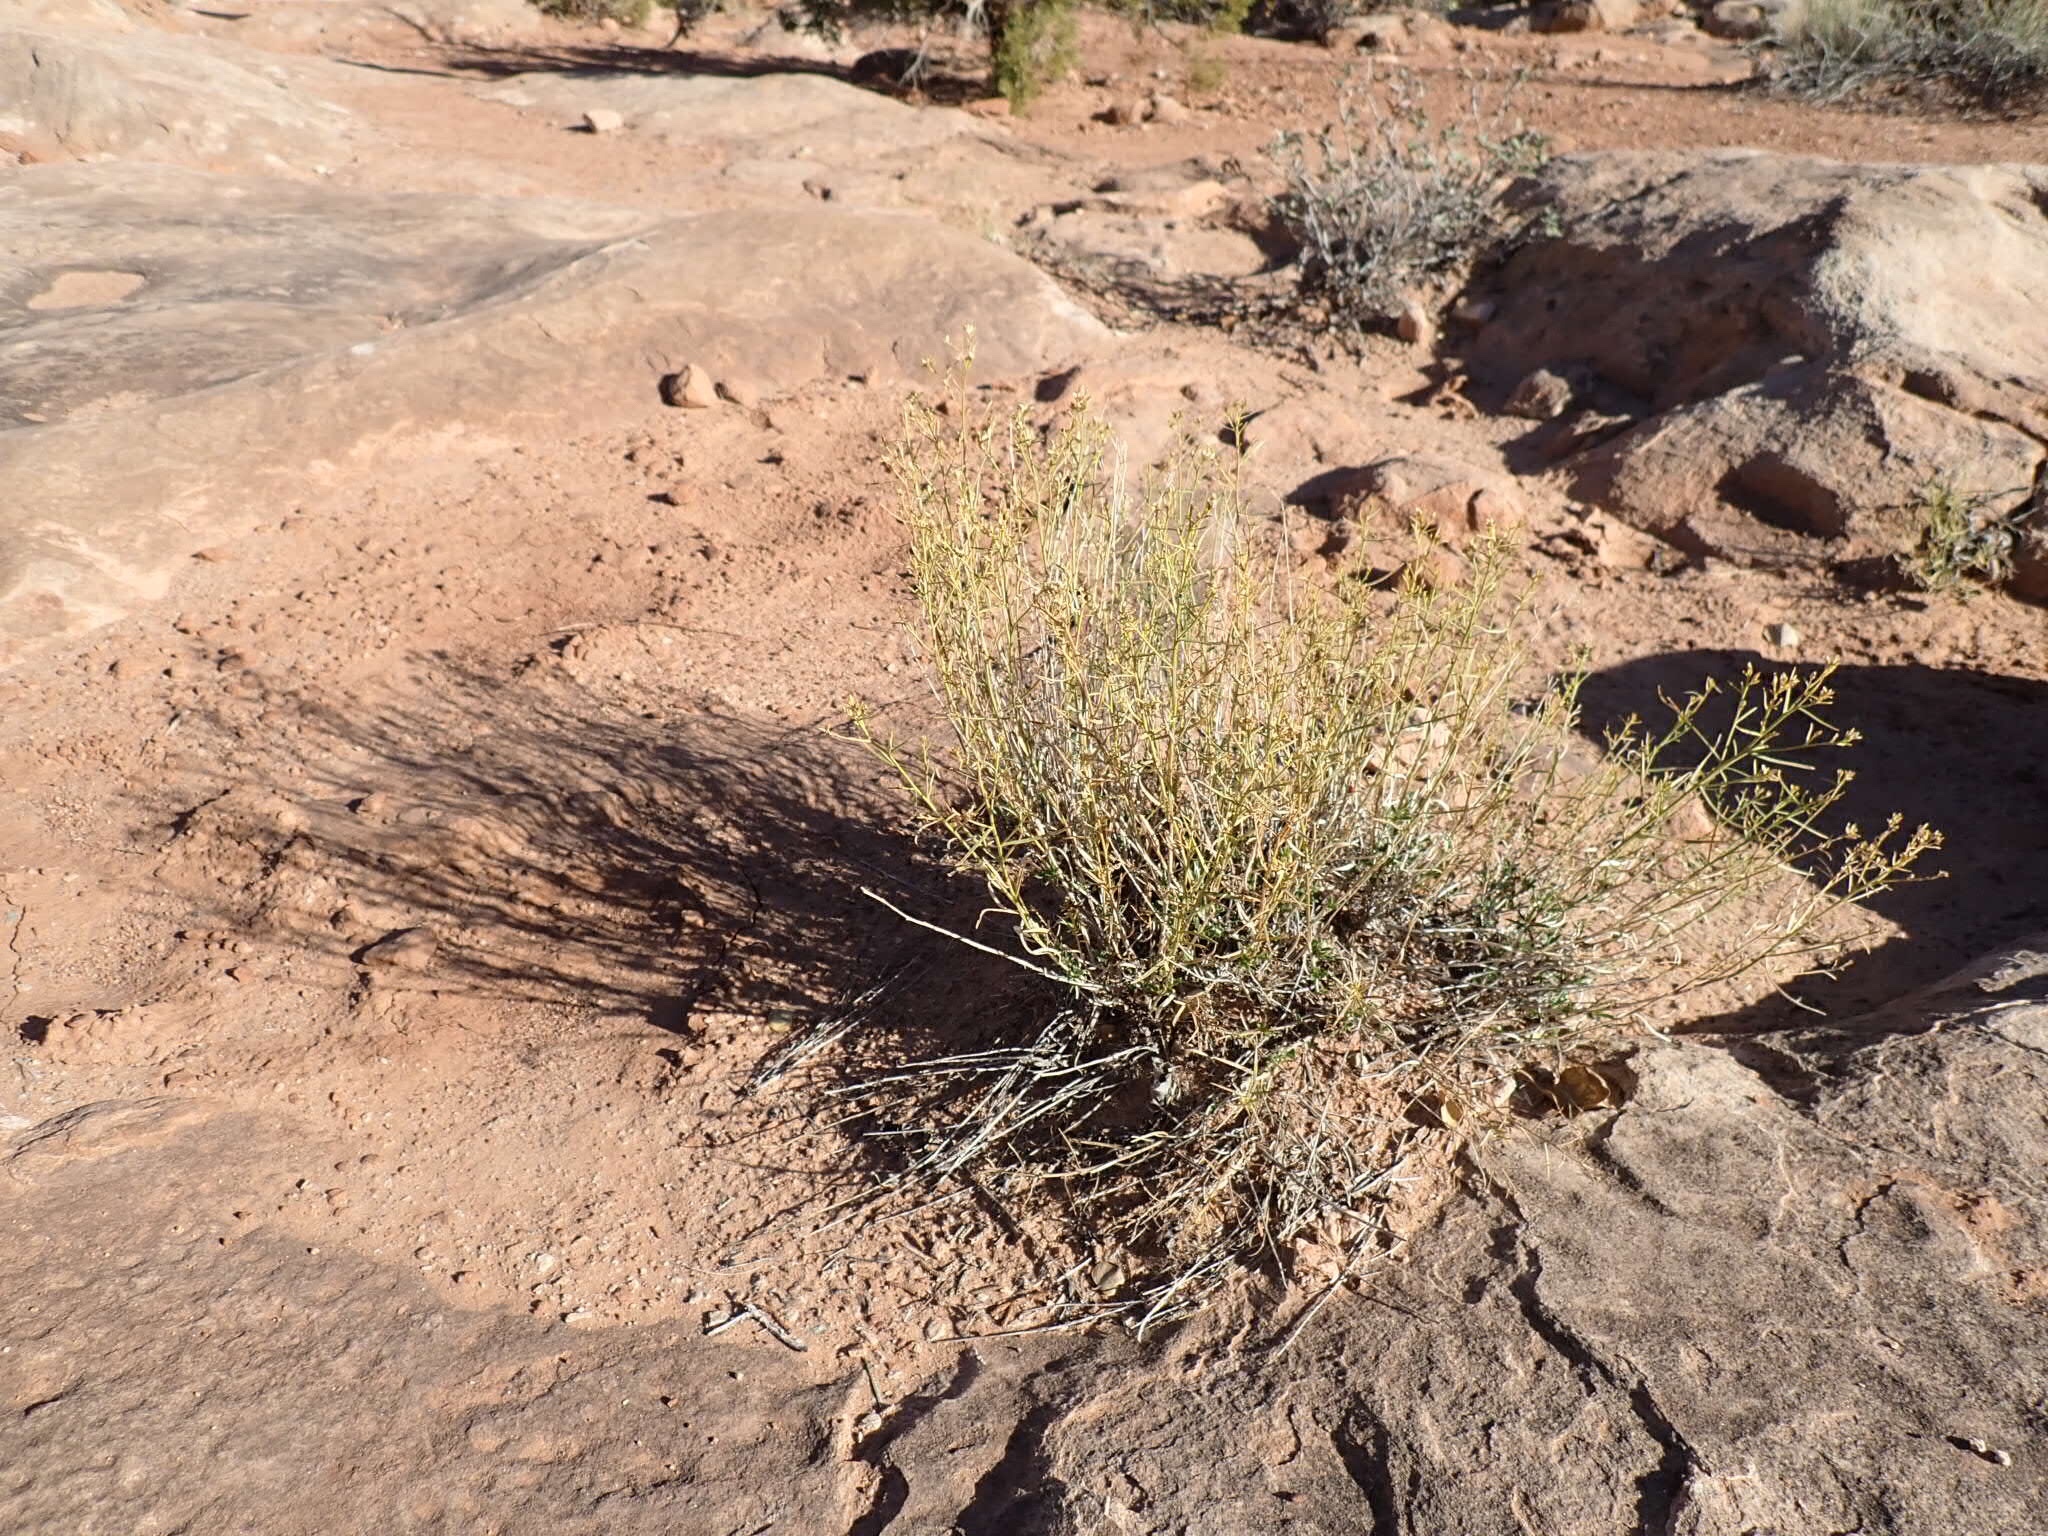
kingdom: Plantae
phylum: Tracheophyta
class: Magnoliopsida
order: Asterales
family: Asteraceae
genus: Gutierrezia
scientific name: Gutierrezia sarothrae
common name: Broom snakeweed
